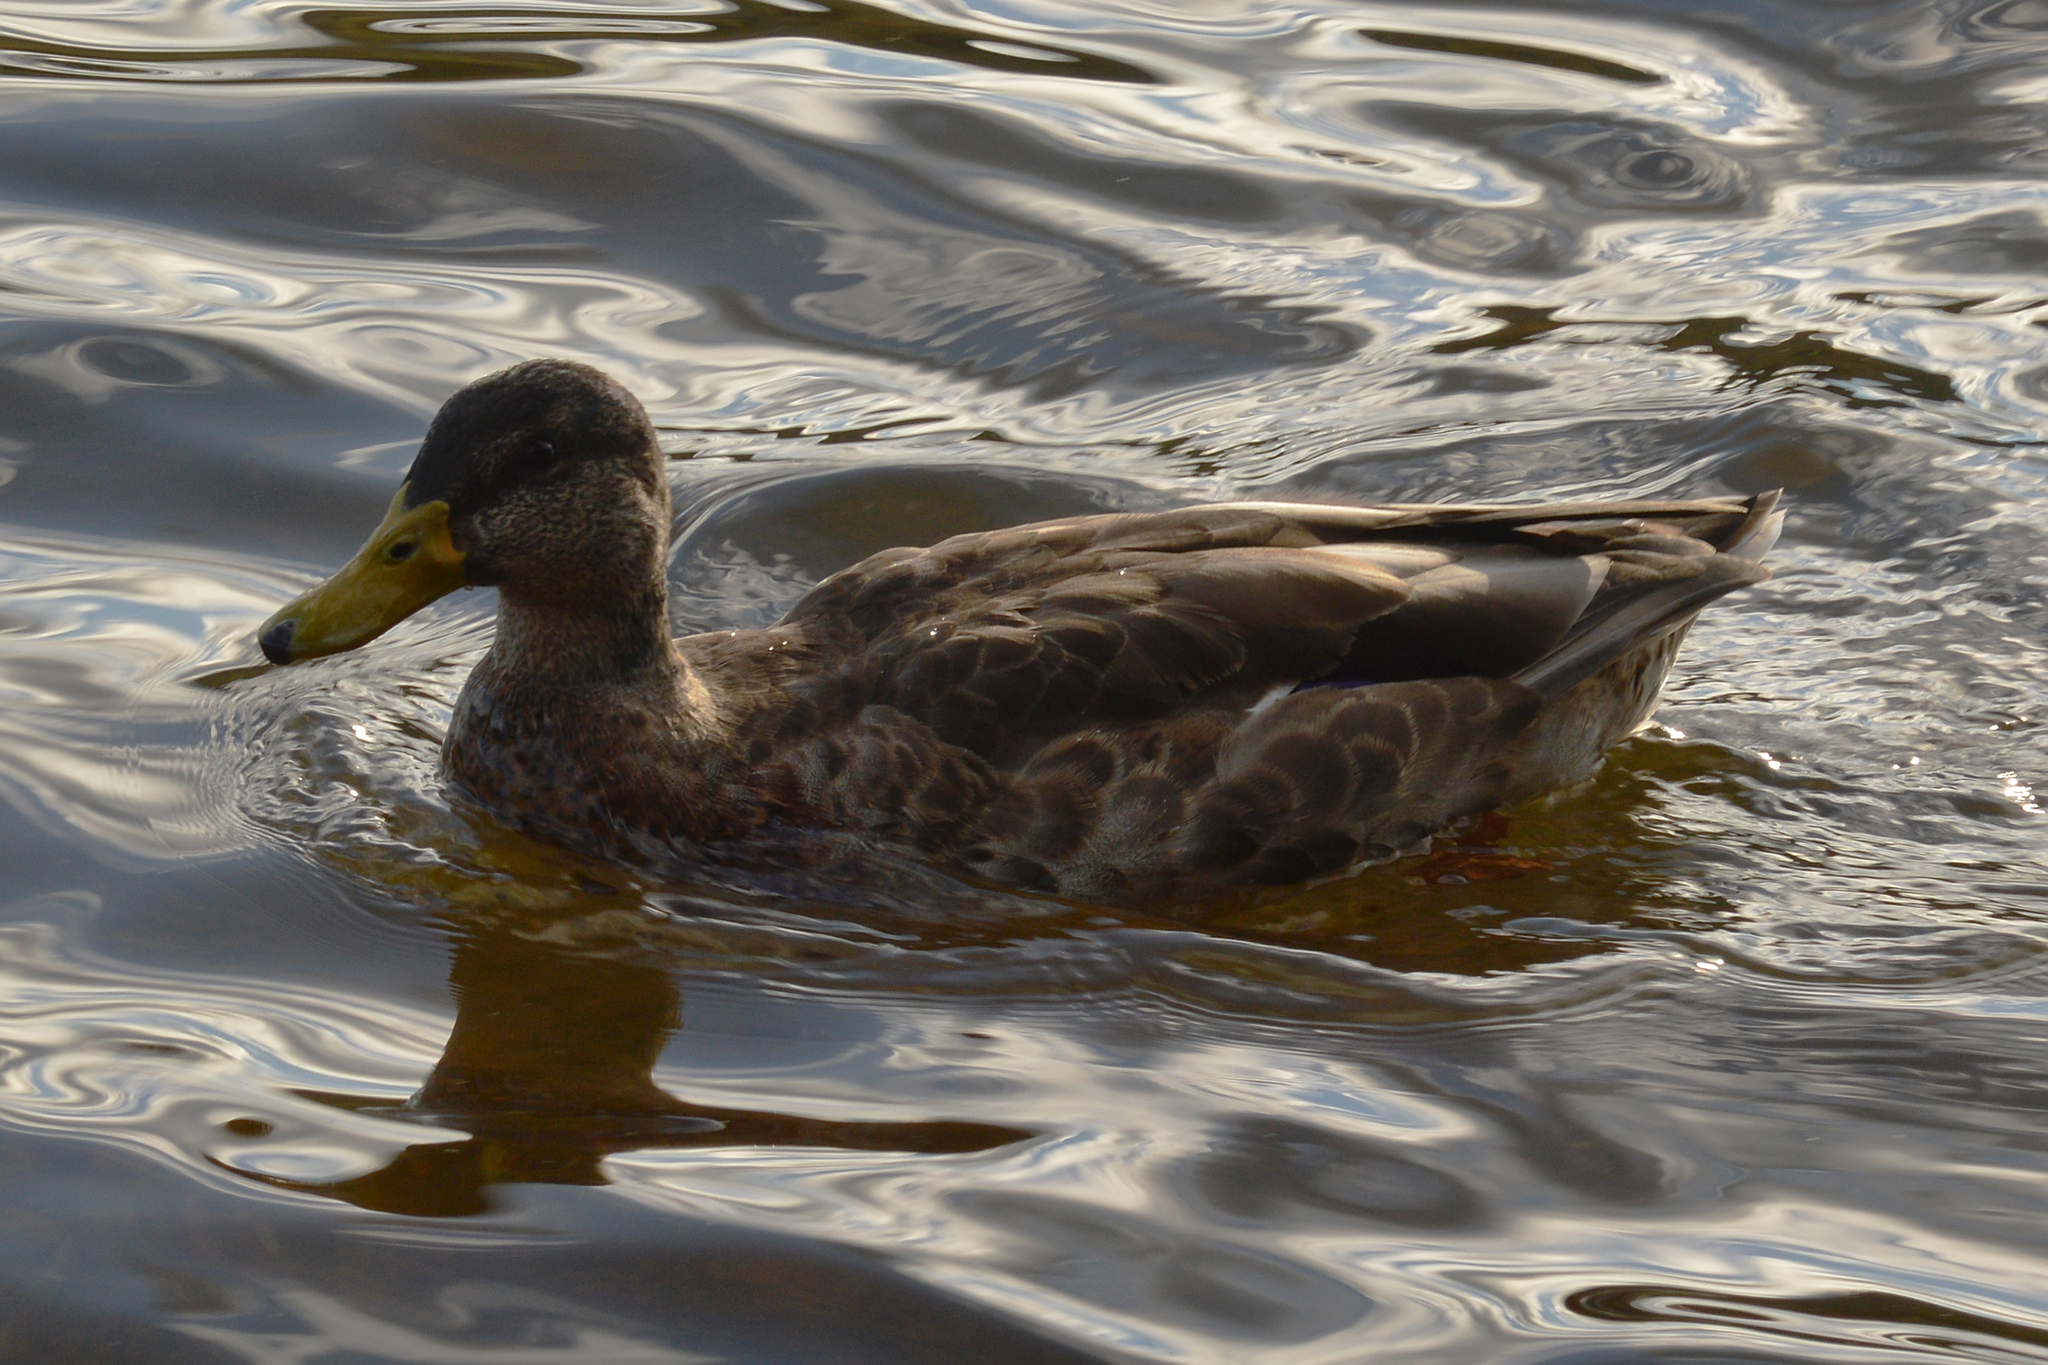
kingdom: Animalia
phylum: Chordata
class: Aves
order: Anseriformes
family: Anatidae
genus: Anas
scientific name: Anas platyrhynchos
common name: Mallard
